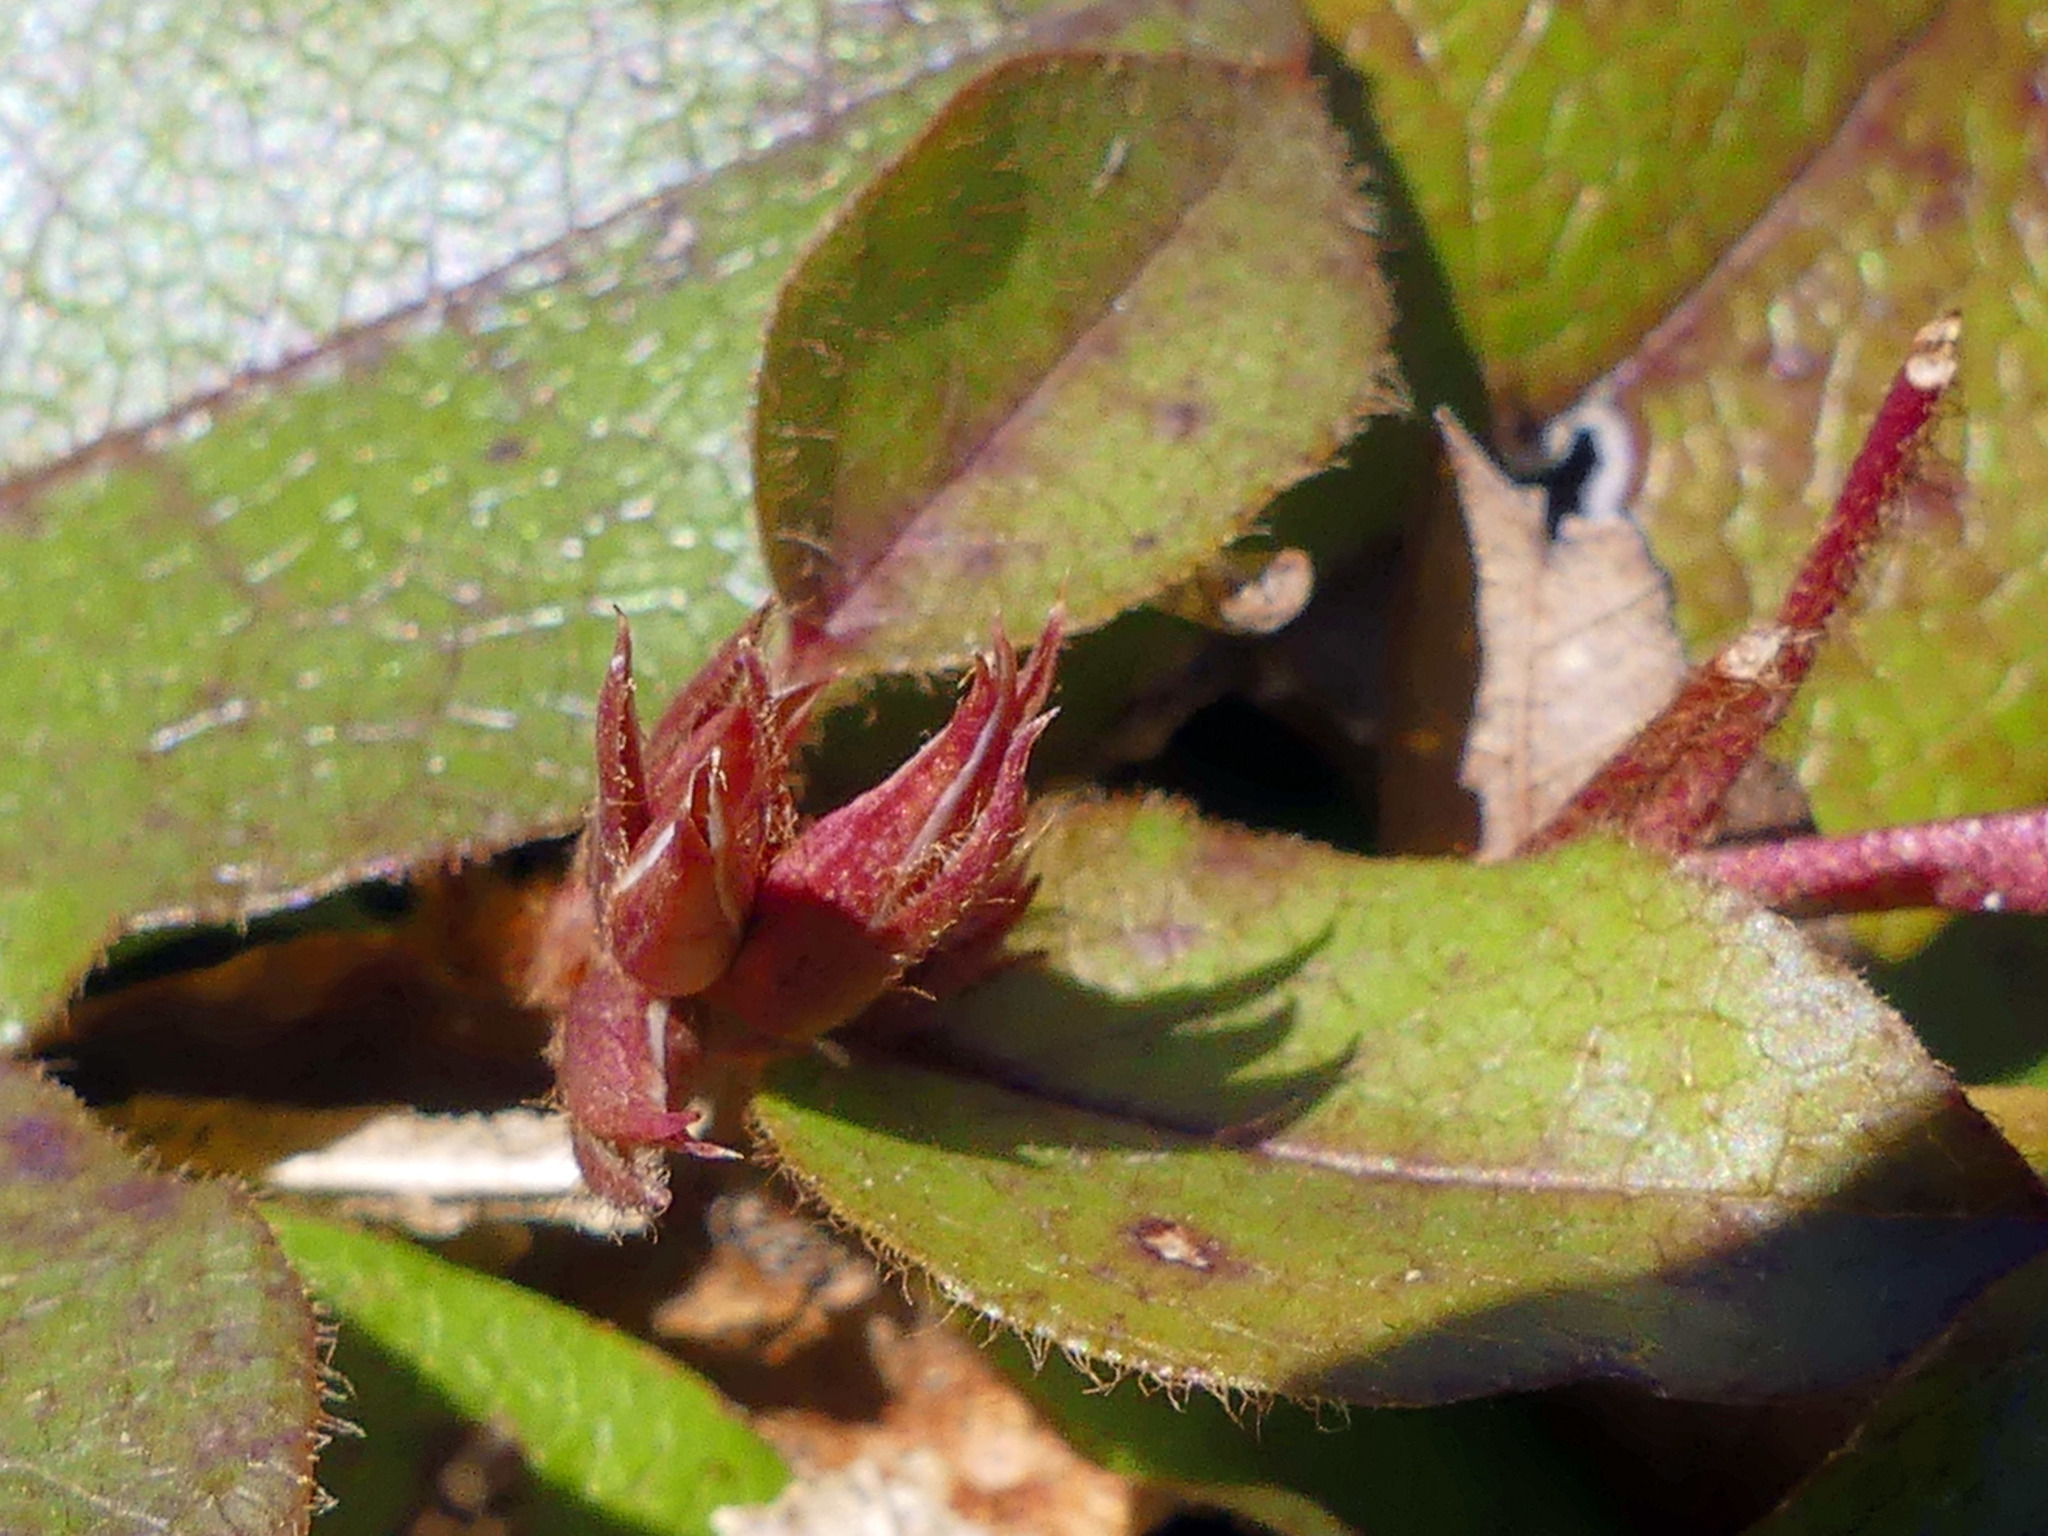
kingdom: Plantae
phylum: Tracheophyta
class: Magnoliopsida
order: Ericales
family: Ericaceae
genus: Epigaea
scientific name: Epigaea repens
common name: Gravelroot
